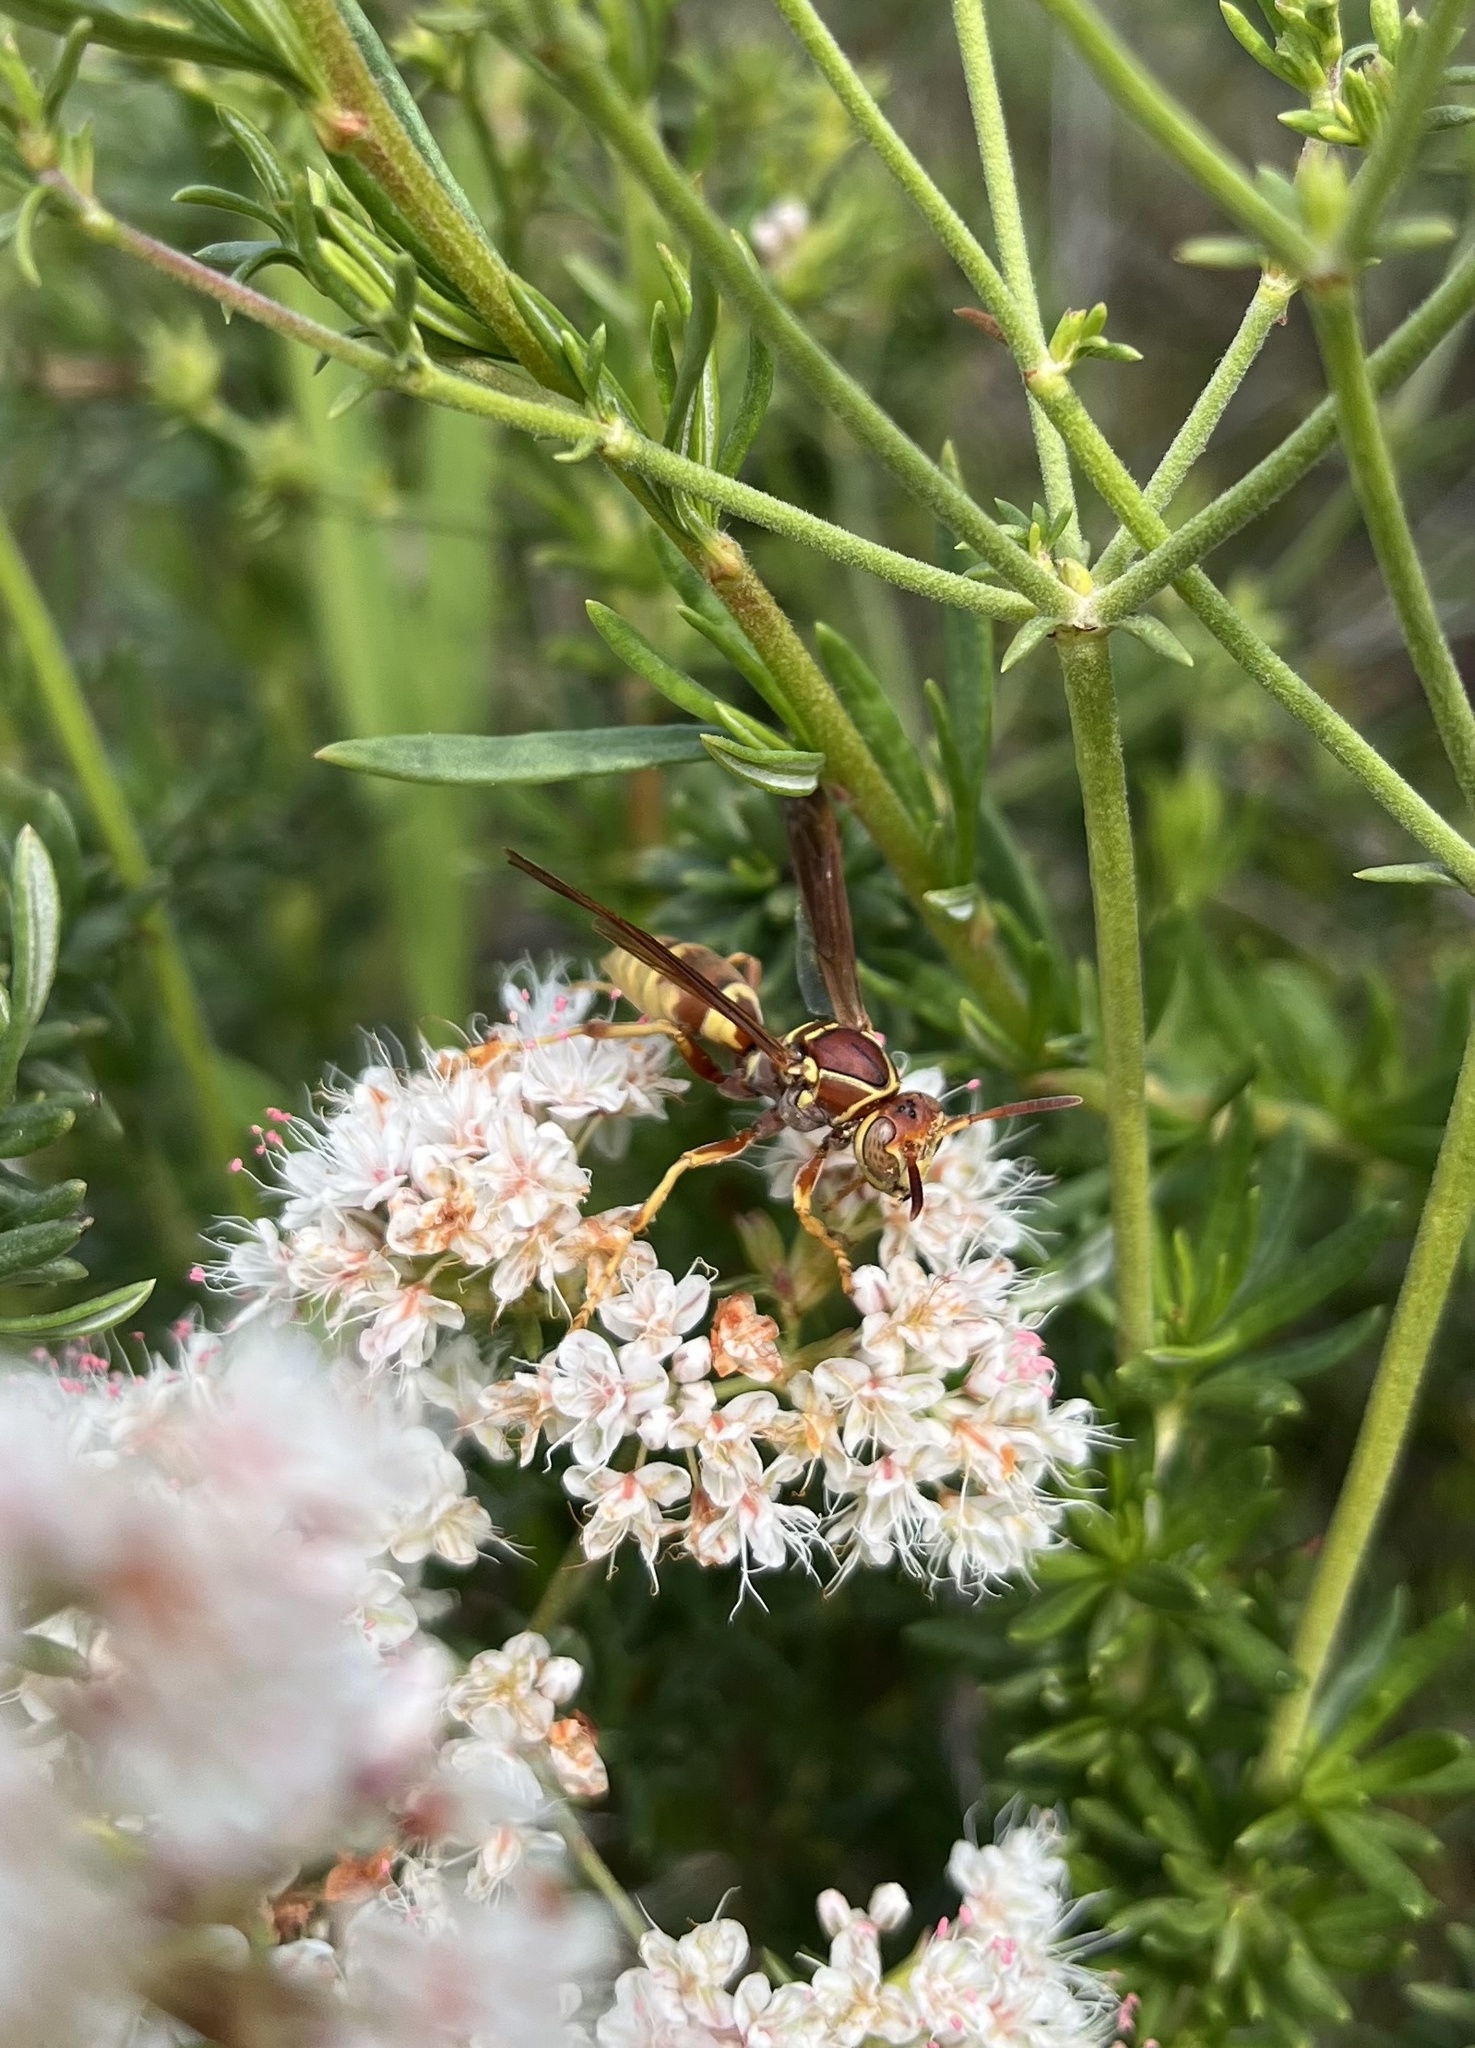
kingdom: Animalia
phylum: Arthropoda
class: Insecta
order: Hymenoptera
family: Eumenidae
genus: Polistes
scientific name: Polistes dorsalis
